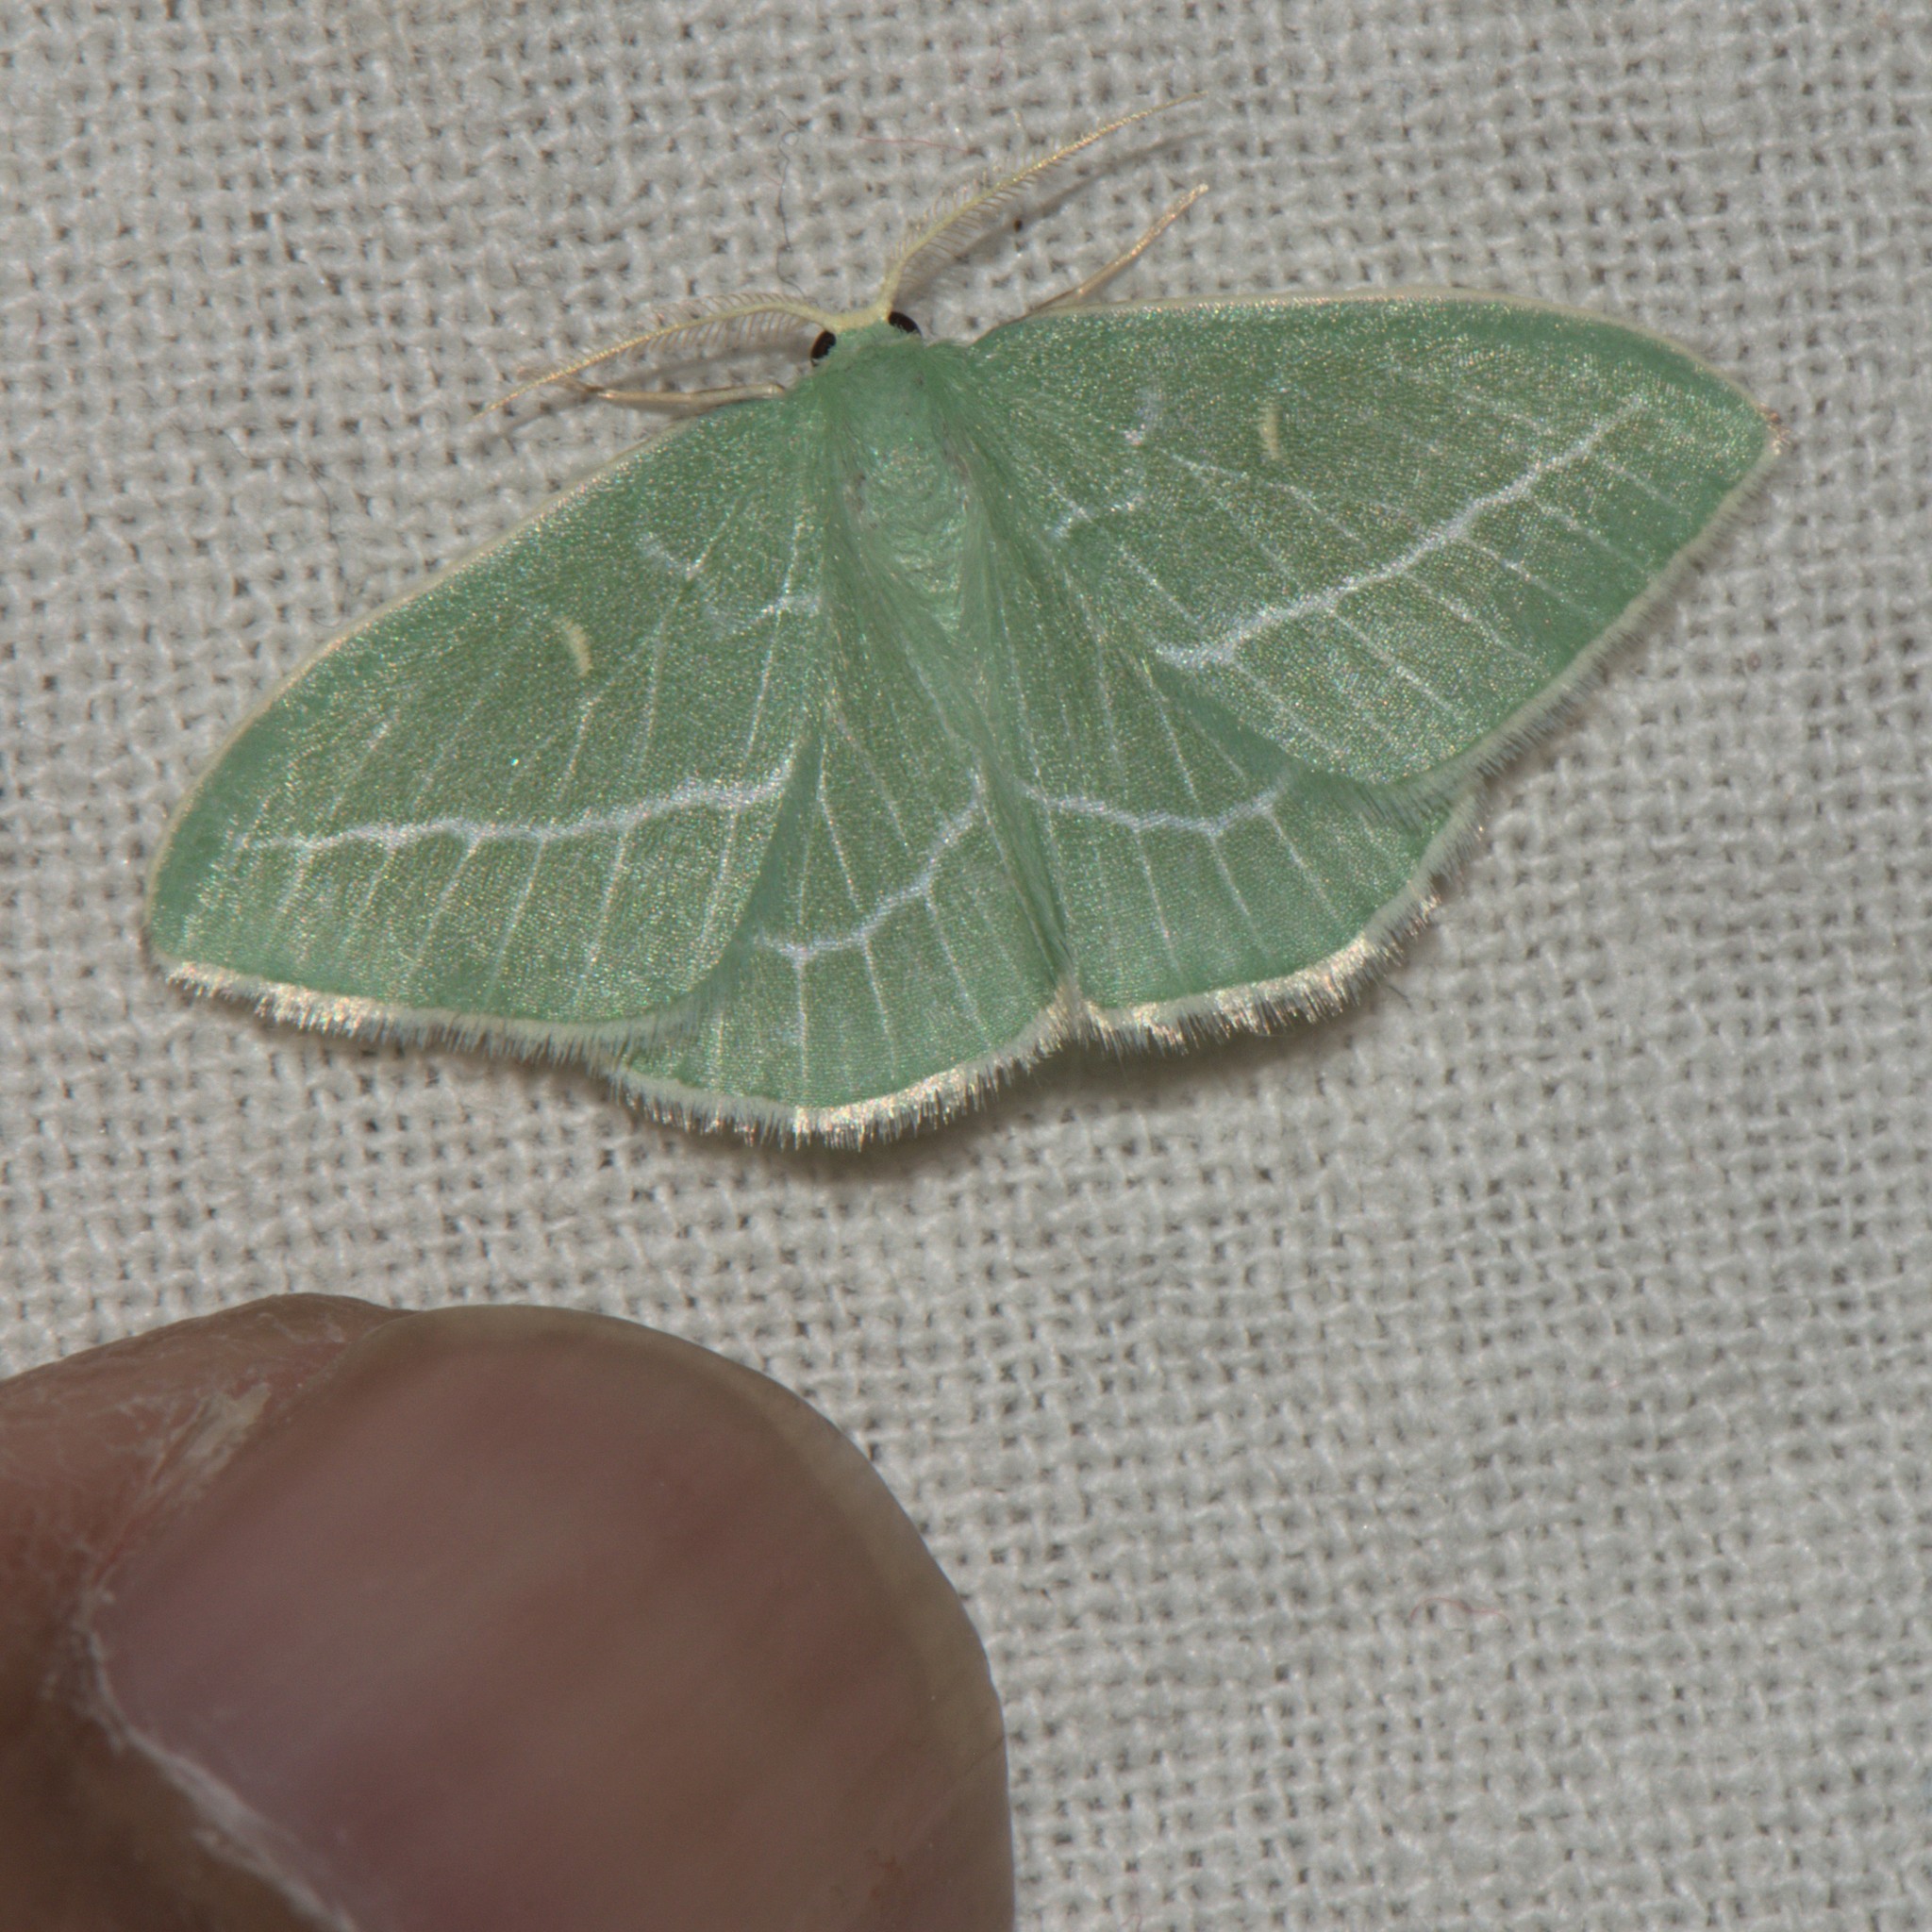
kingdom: Animalia
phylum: Arthropoda
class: Insecta
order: Lepidoptera
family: Geometridae
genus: Hemistola
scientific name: Hemistola loxiaria
